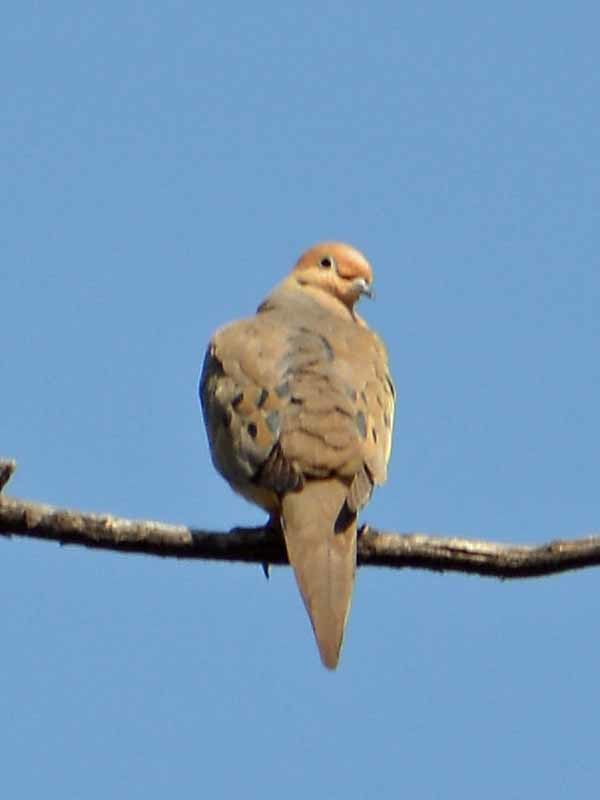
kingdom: Animalia
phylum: Chordata
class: Aves
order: Columbiformes
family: Columbidae
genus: Zenaida
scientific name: Zenaida macroura
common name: Mourning dove
